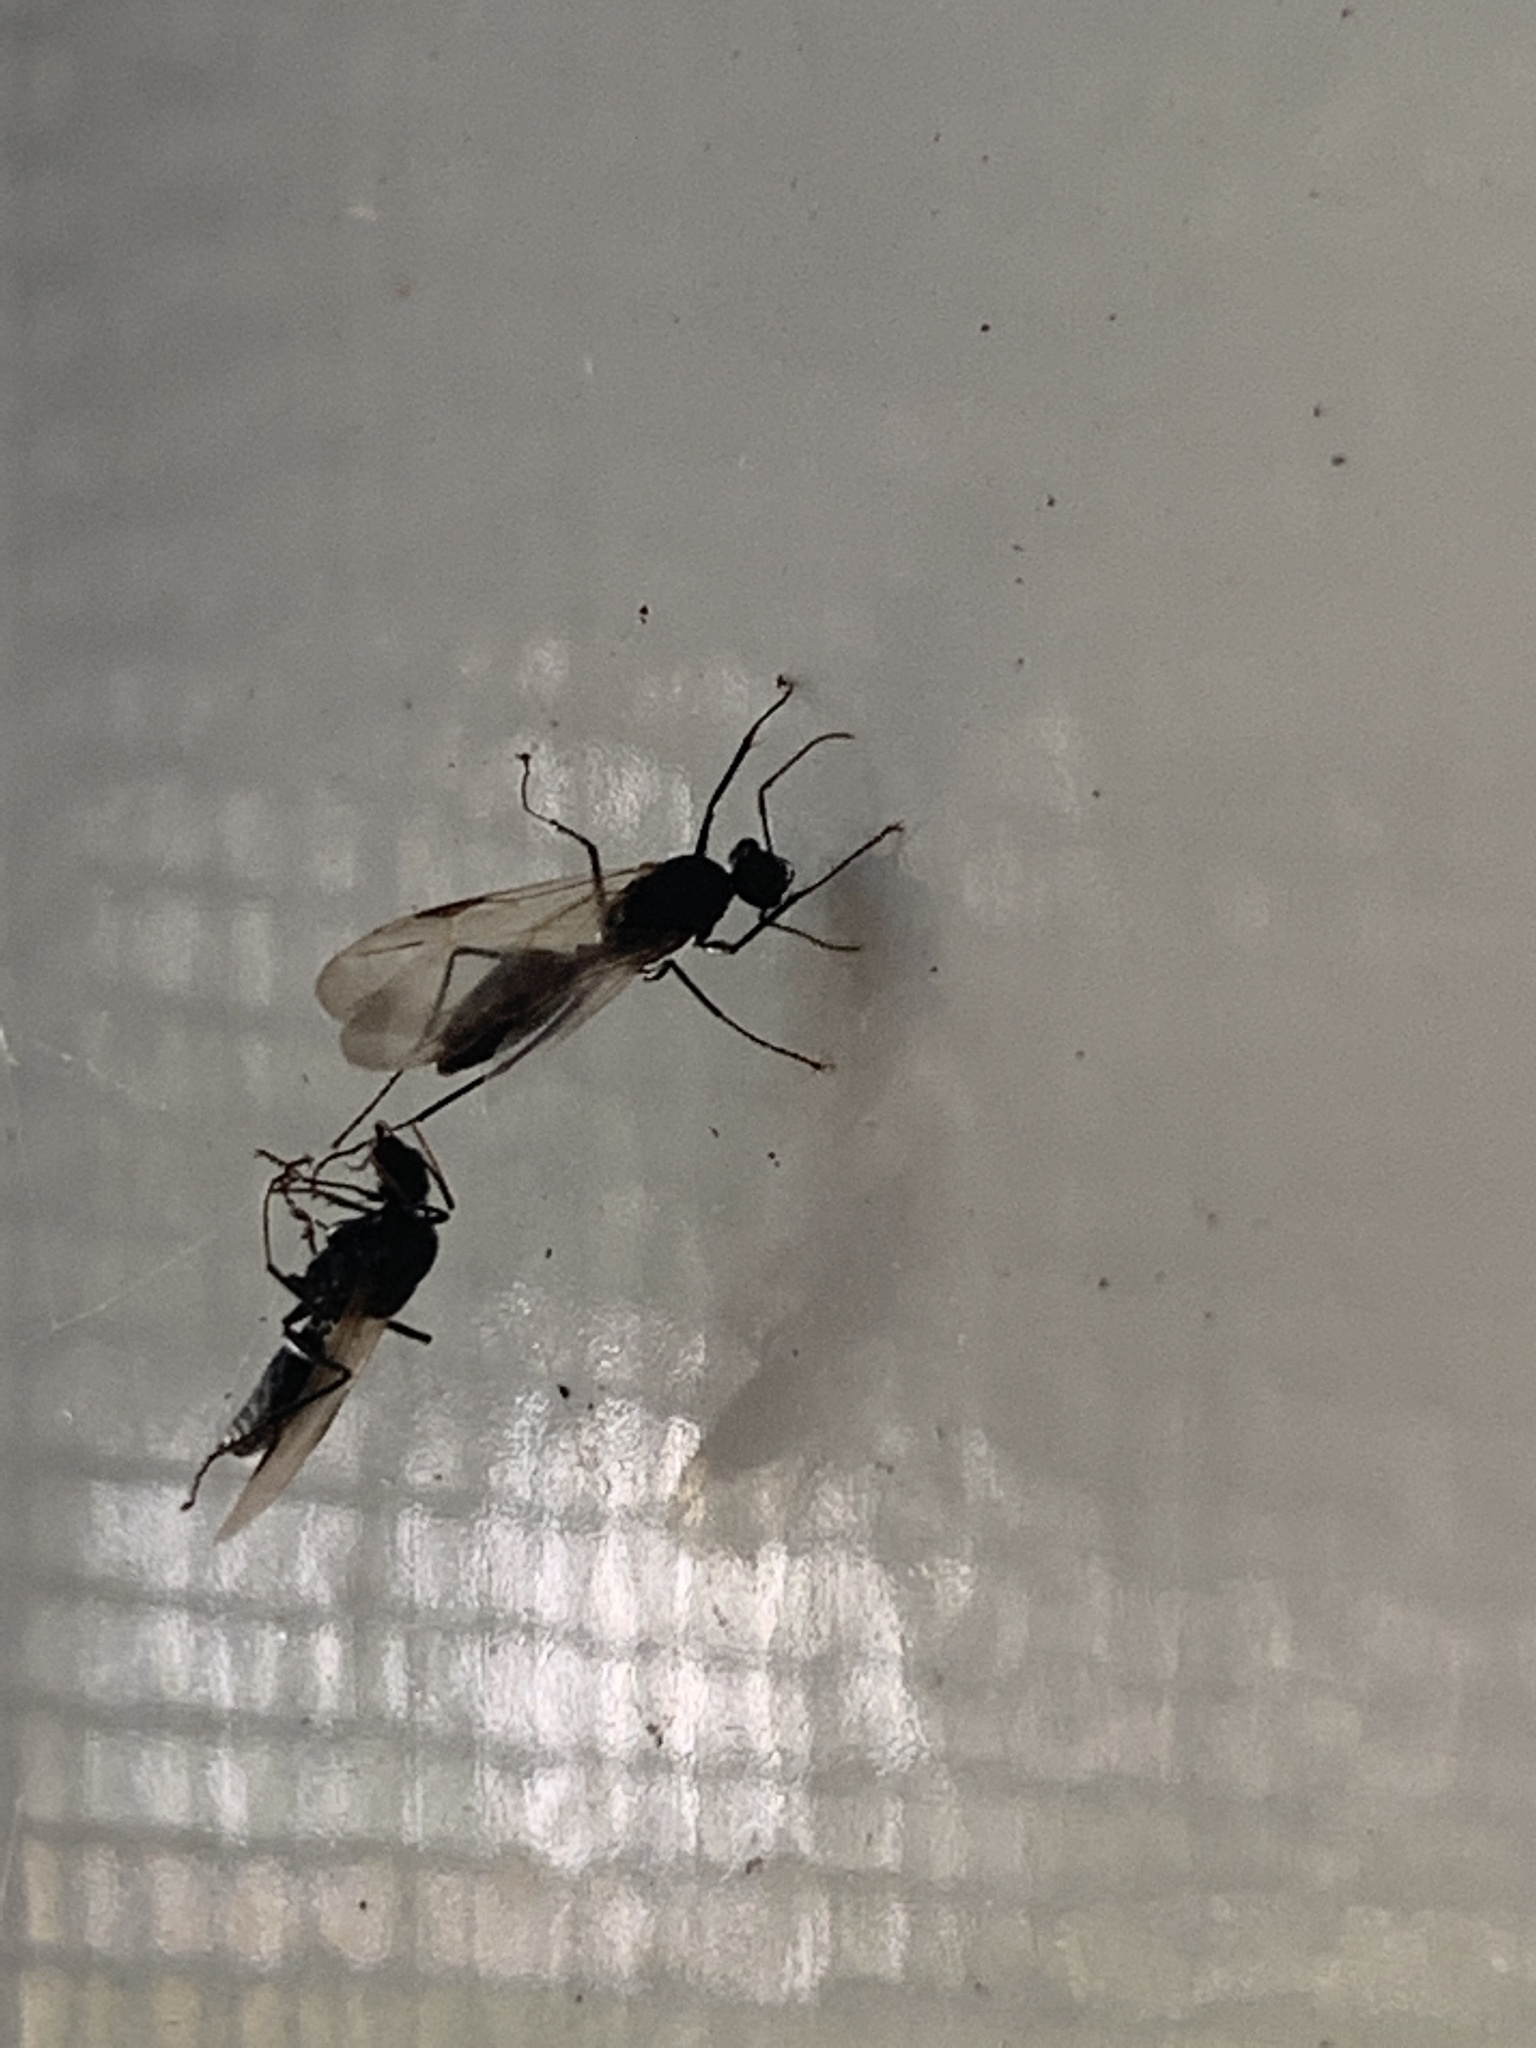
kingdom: Animalia
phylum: Arthropoda
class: Insecta
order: Hymenoptera
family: Formicidae
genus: Camponotus
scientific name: Camponotus planatus
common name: Compact carpenter ant
